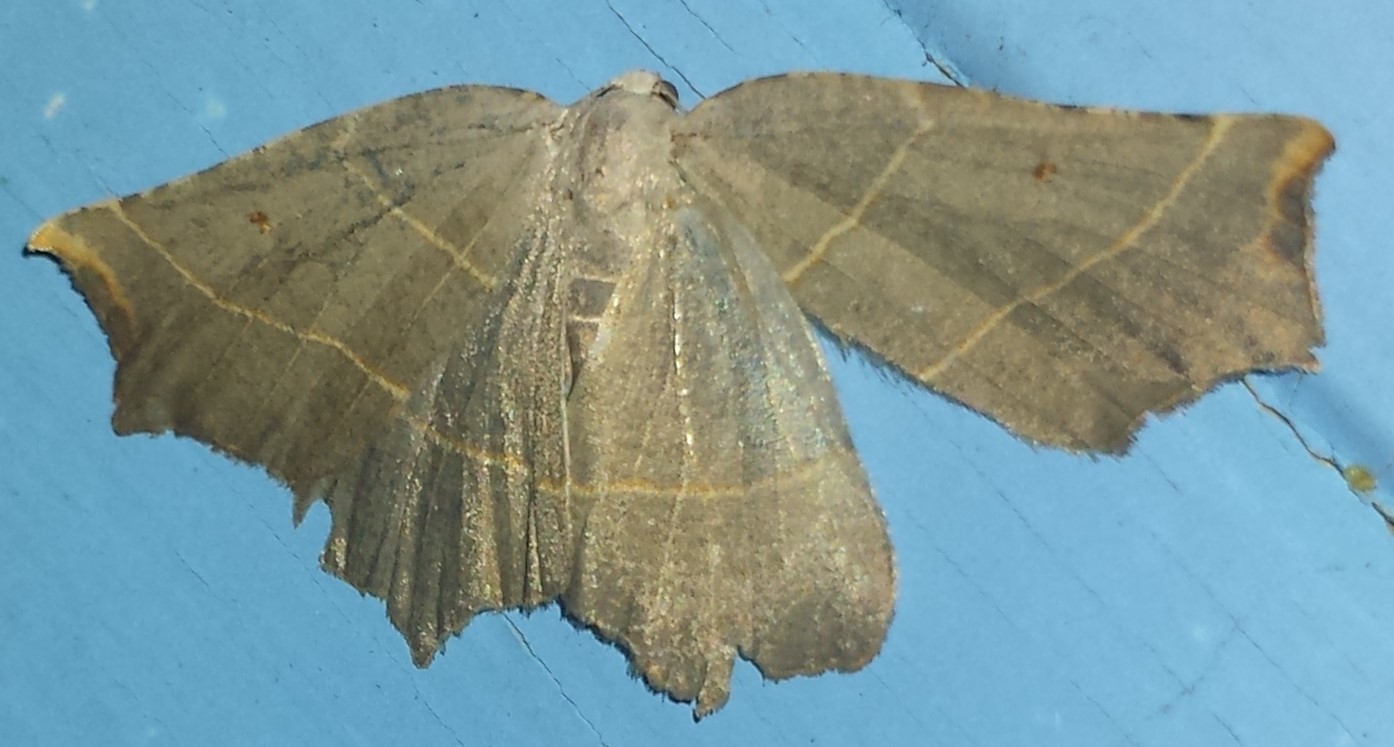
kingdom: Animalia
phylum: Arthropoda
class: Insecta
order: Lepidoptera
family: Geometridae
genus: Metanema
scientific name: Metanema inatomaria
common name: Pale metanema
